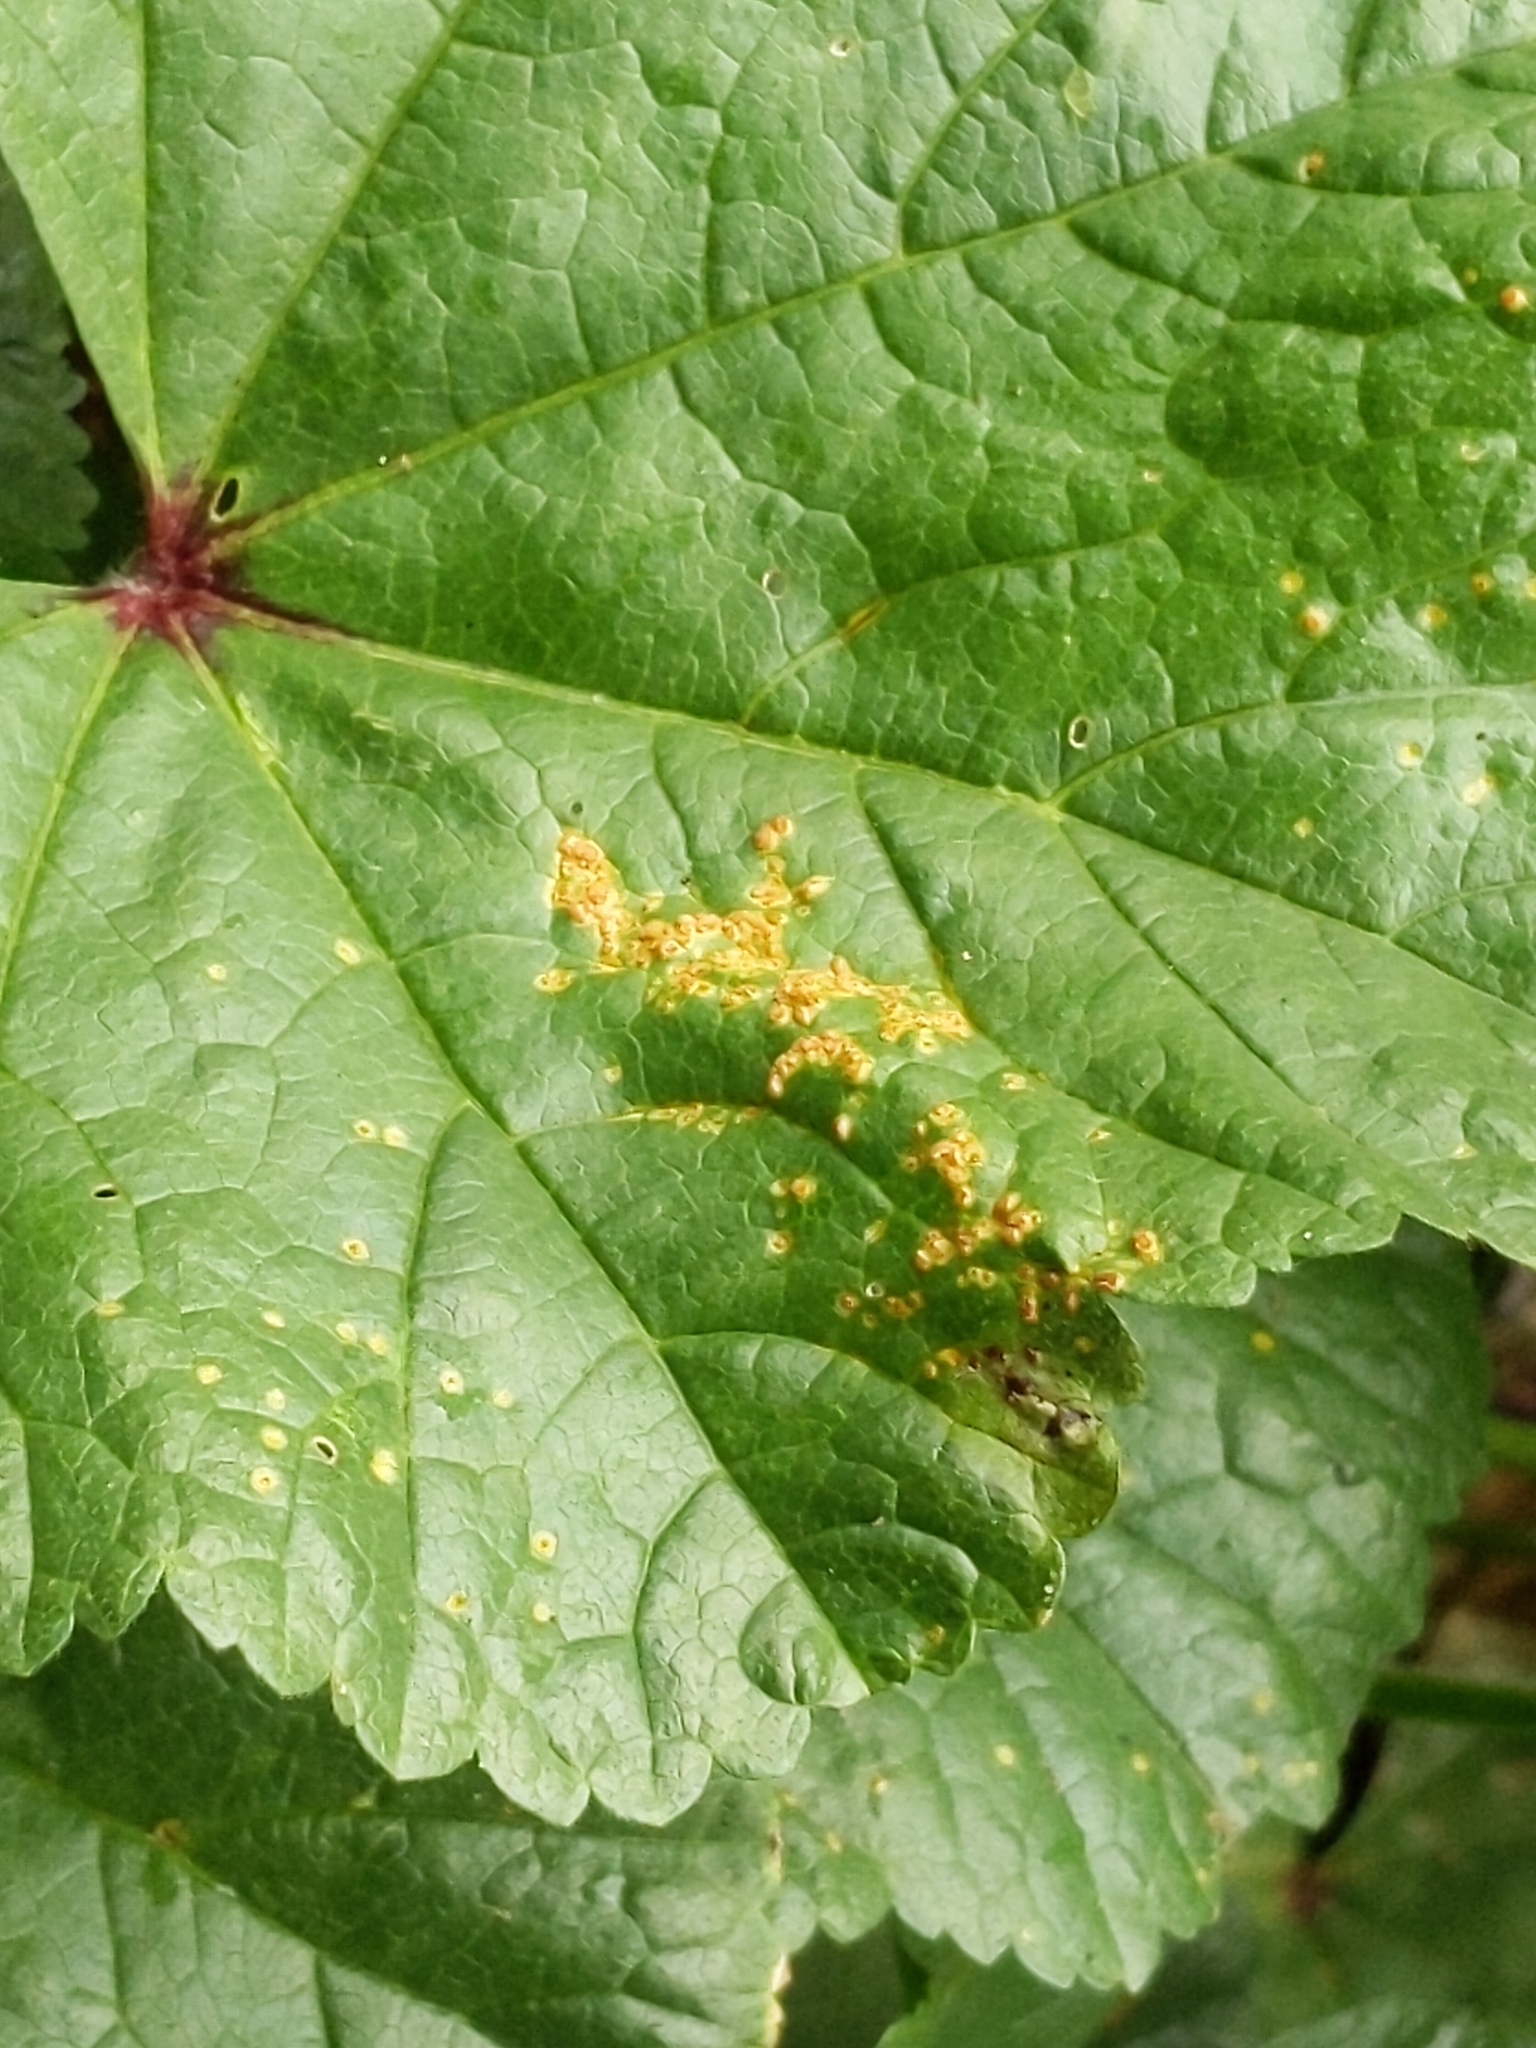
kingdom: Fungi
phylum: Basidiomycota
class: Pucciniomycetes
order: Pucciniales
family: Pucciniaceae
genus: Puccinia
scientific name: Puccinia malvacearum
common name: Hollyhock rust
